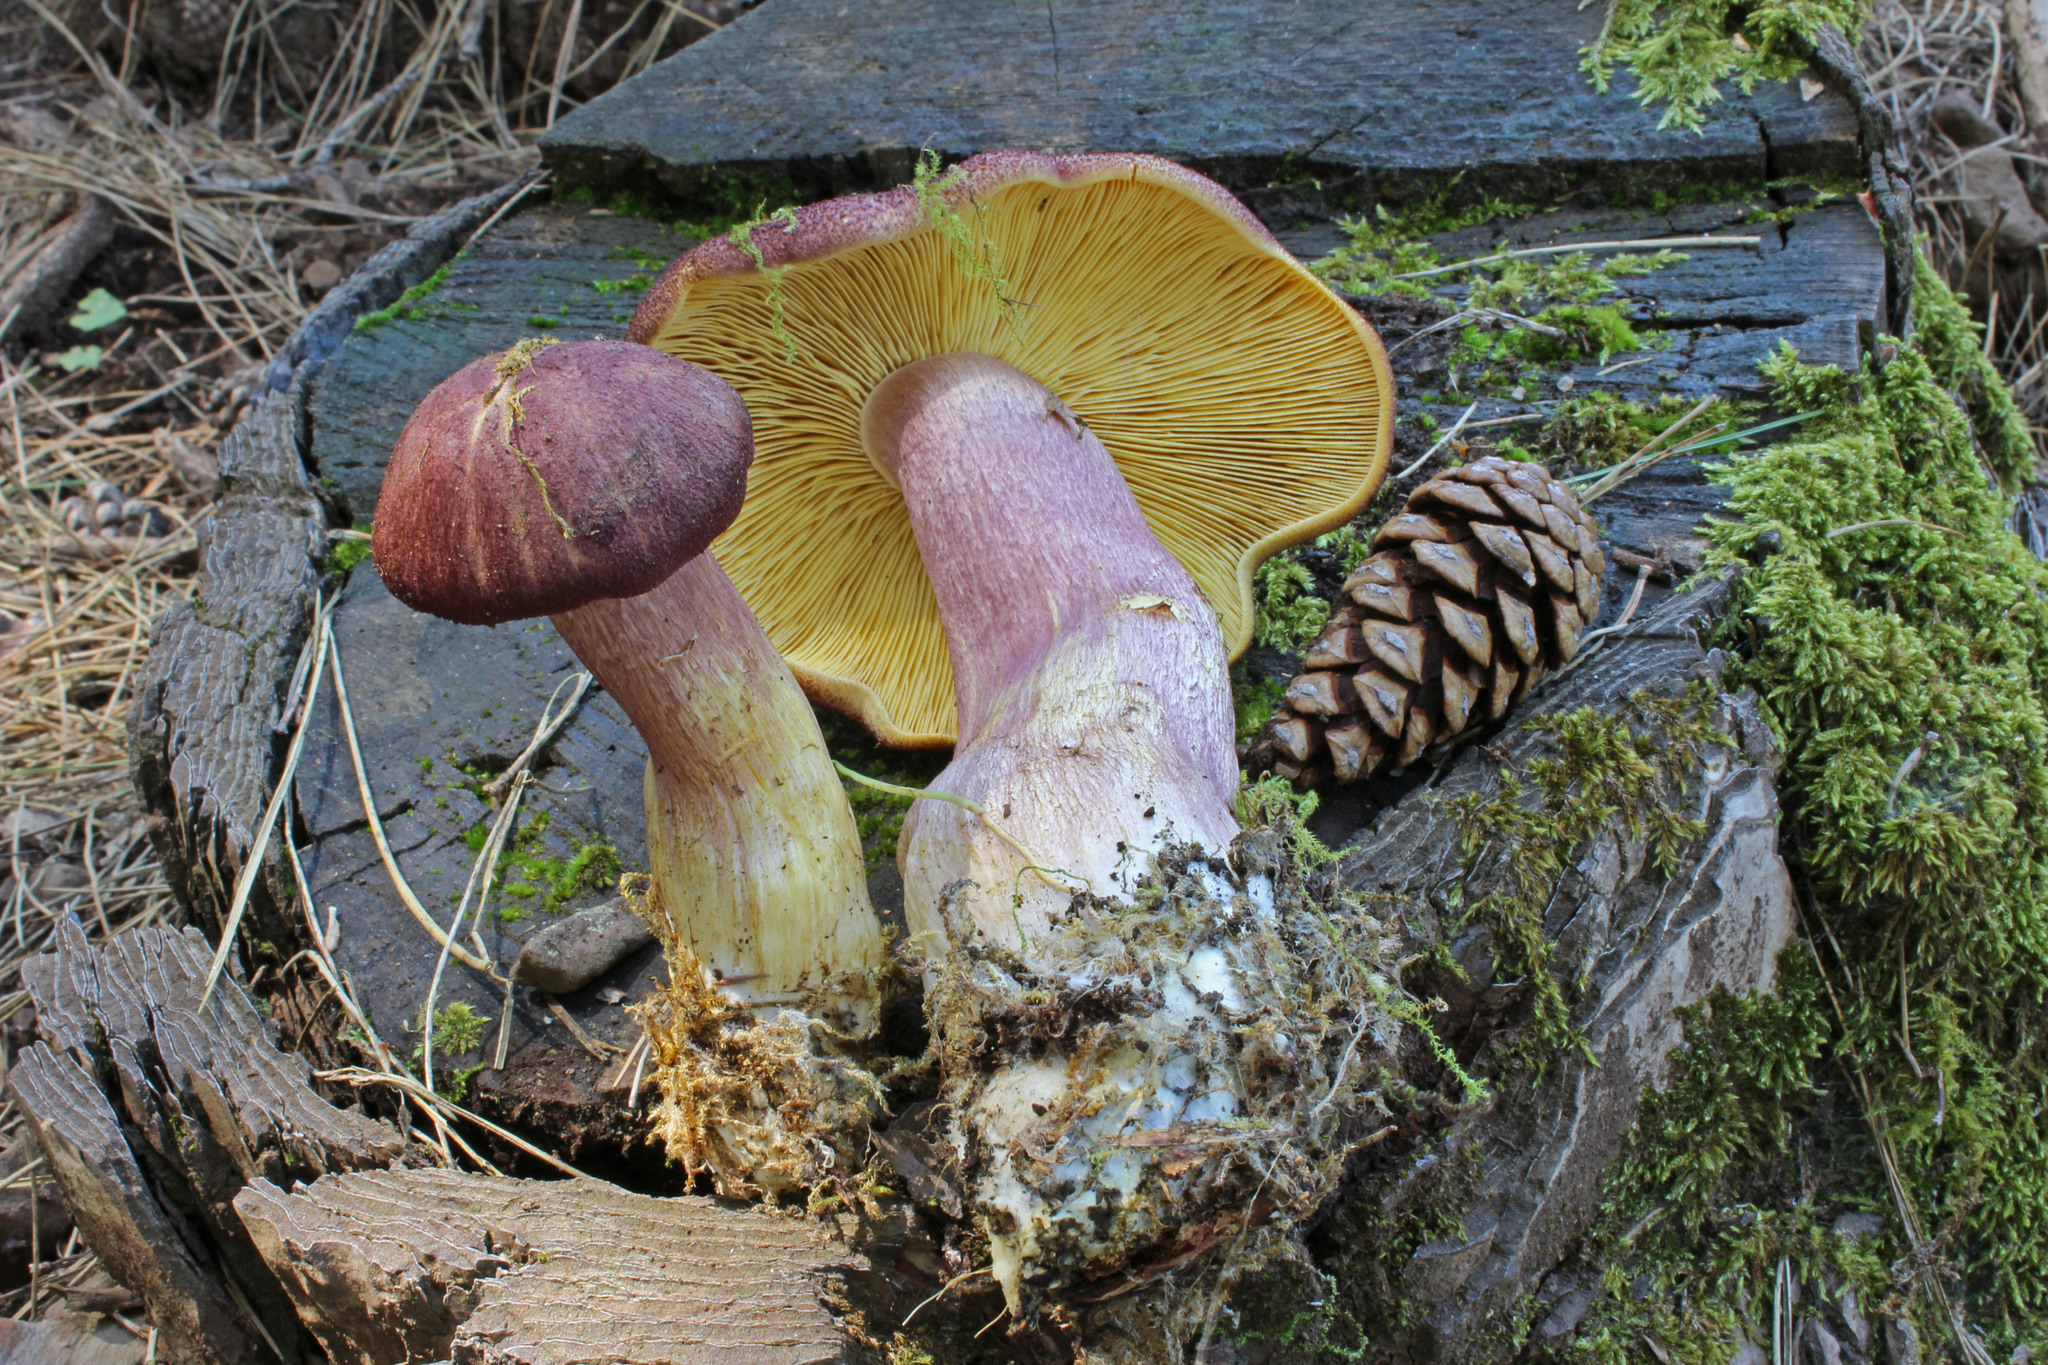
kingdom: Fungi
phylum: Basidiomycota
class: Agaricomycetes
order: Agaricales
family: Tricholomataceae
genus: Tricholomopsis
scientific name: Tricholomopsis rutilans
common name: Plums and custard
